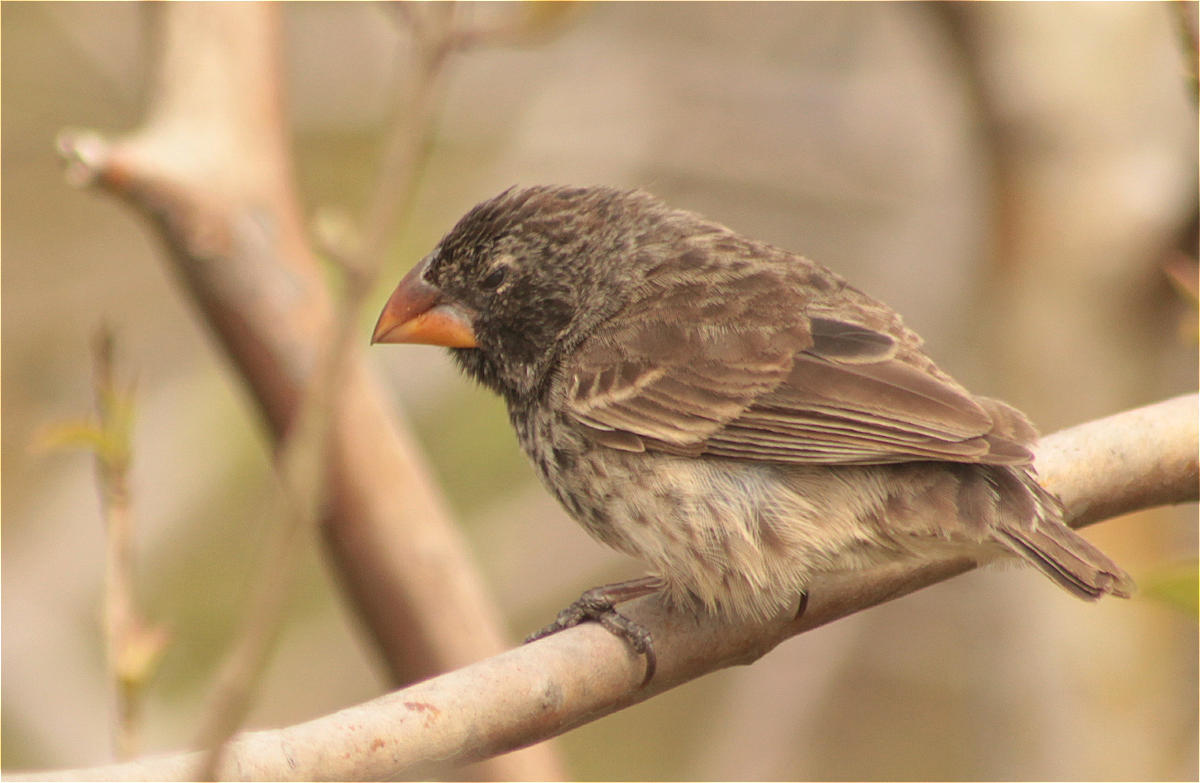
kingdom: Animalia
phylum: Chordata
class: Aves
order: Passeriformes
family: Thraupidae
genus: Geospiza
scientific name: Geospiza fortis
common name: Medium ground finch
